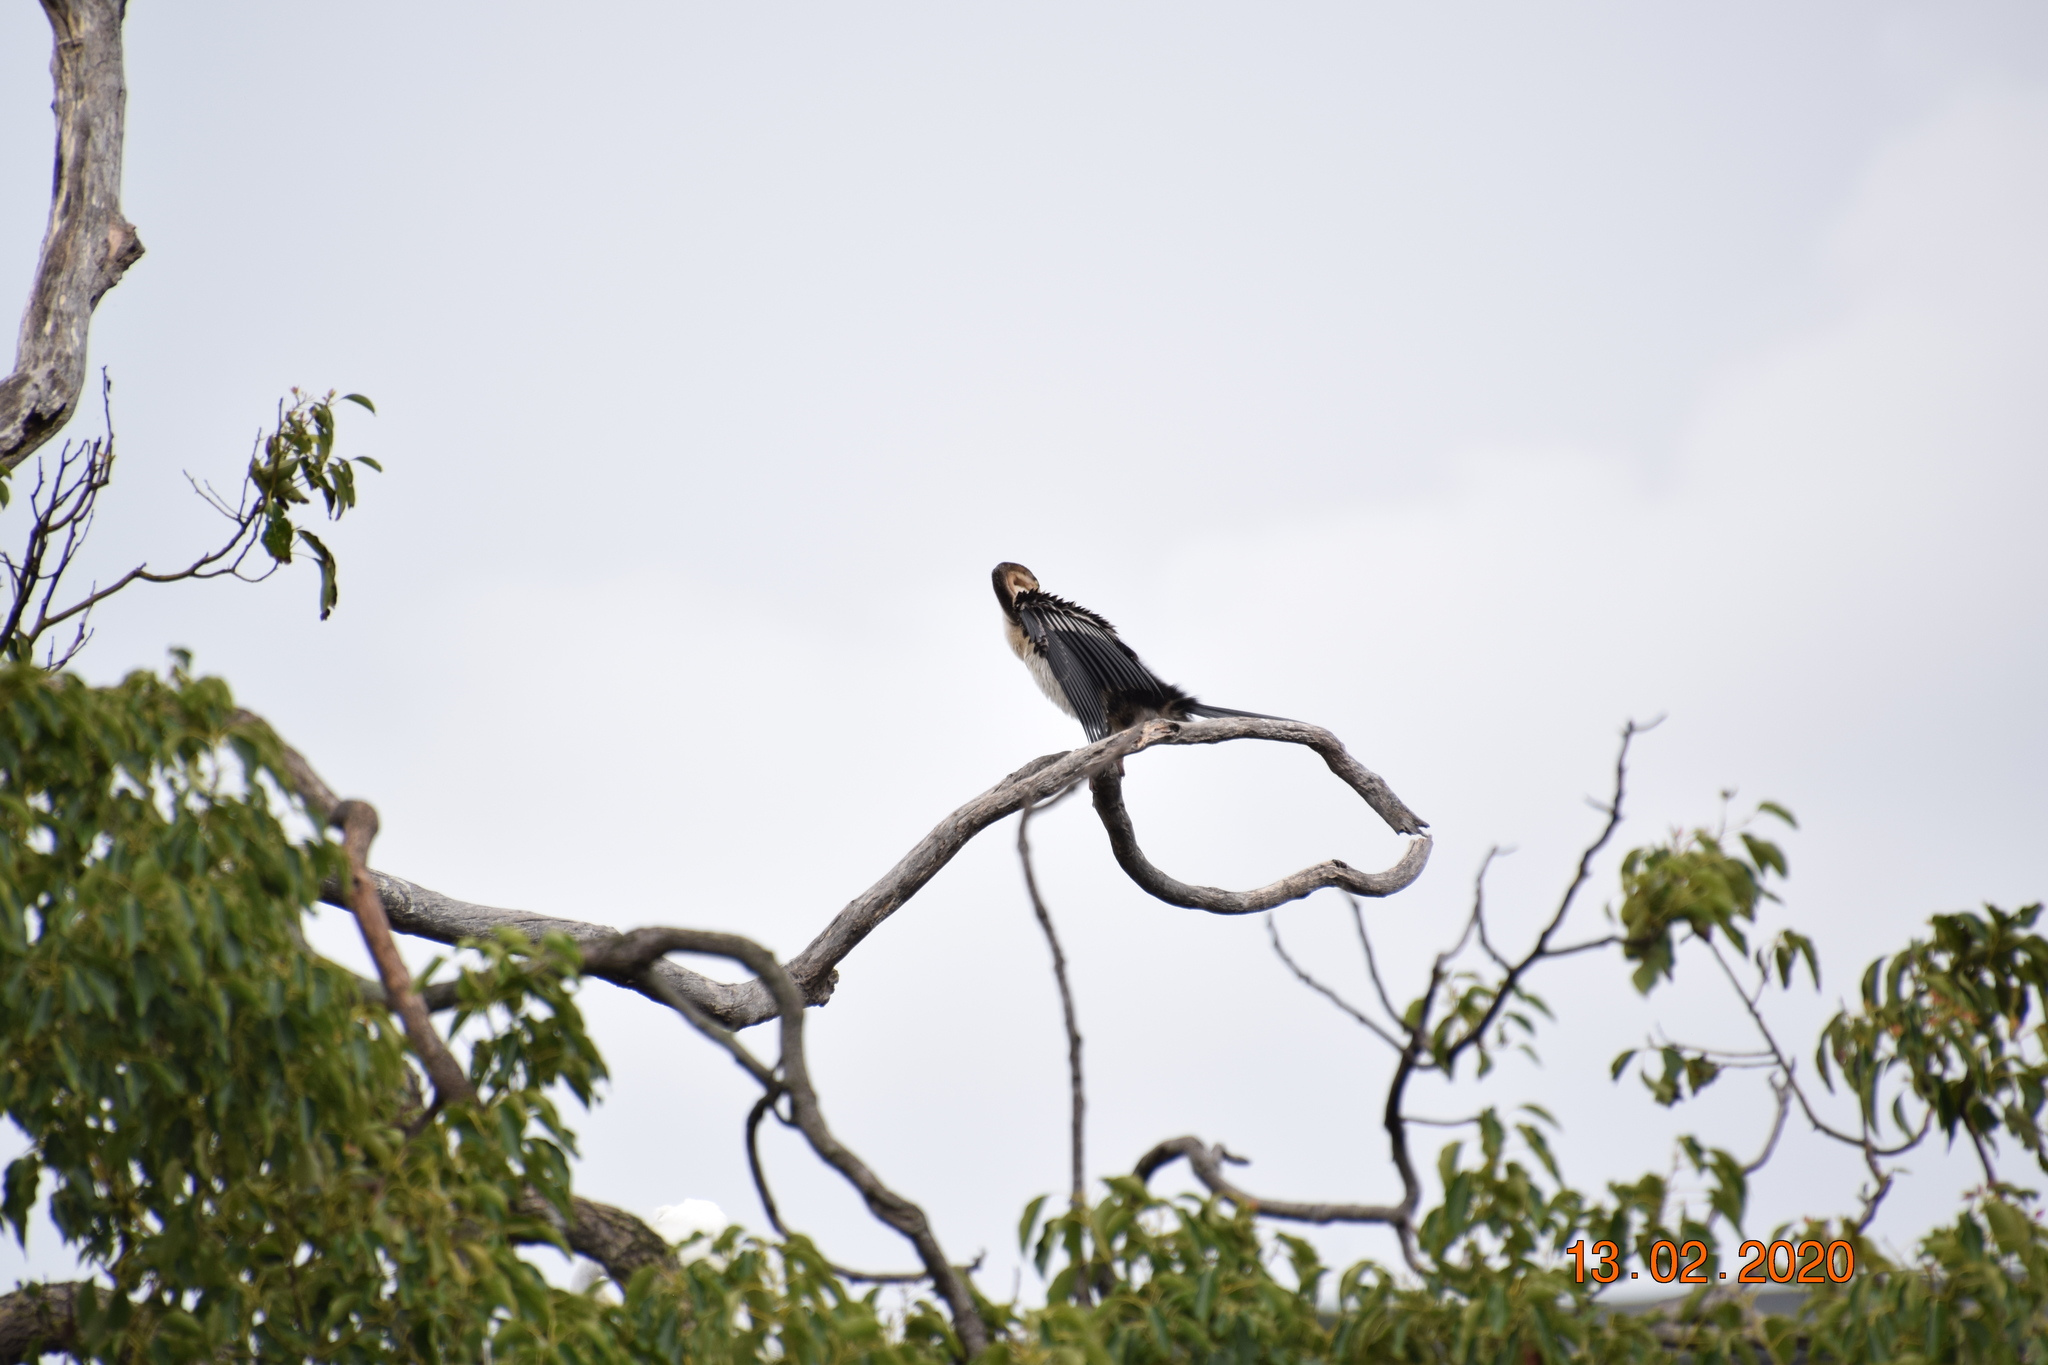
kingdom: Animalia
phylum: Chordata
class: Aves
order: Suliformes
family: Anhingidae
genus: Anhinga
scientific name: Anhinga novaehollandiae
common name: Australasian darter
